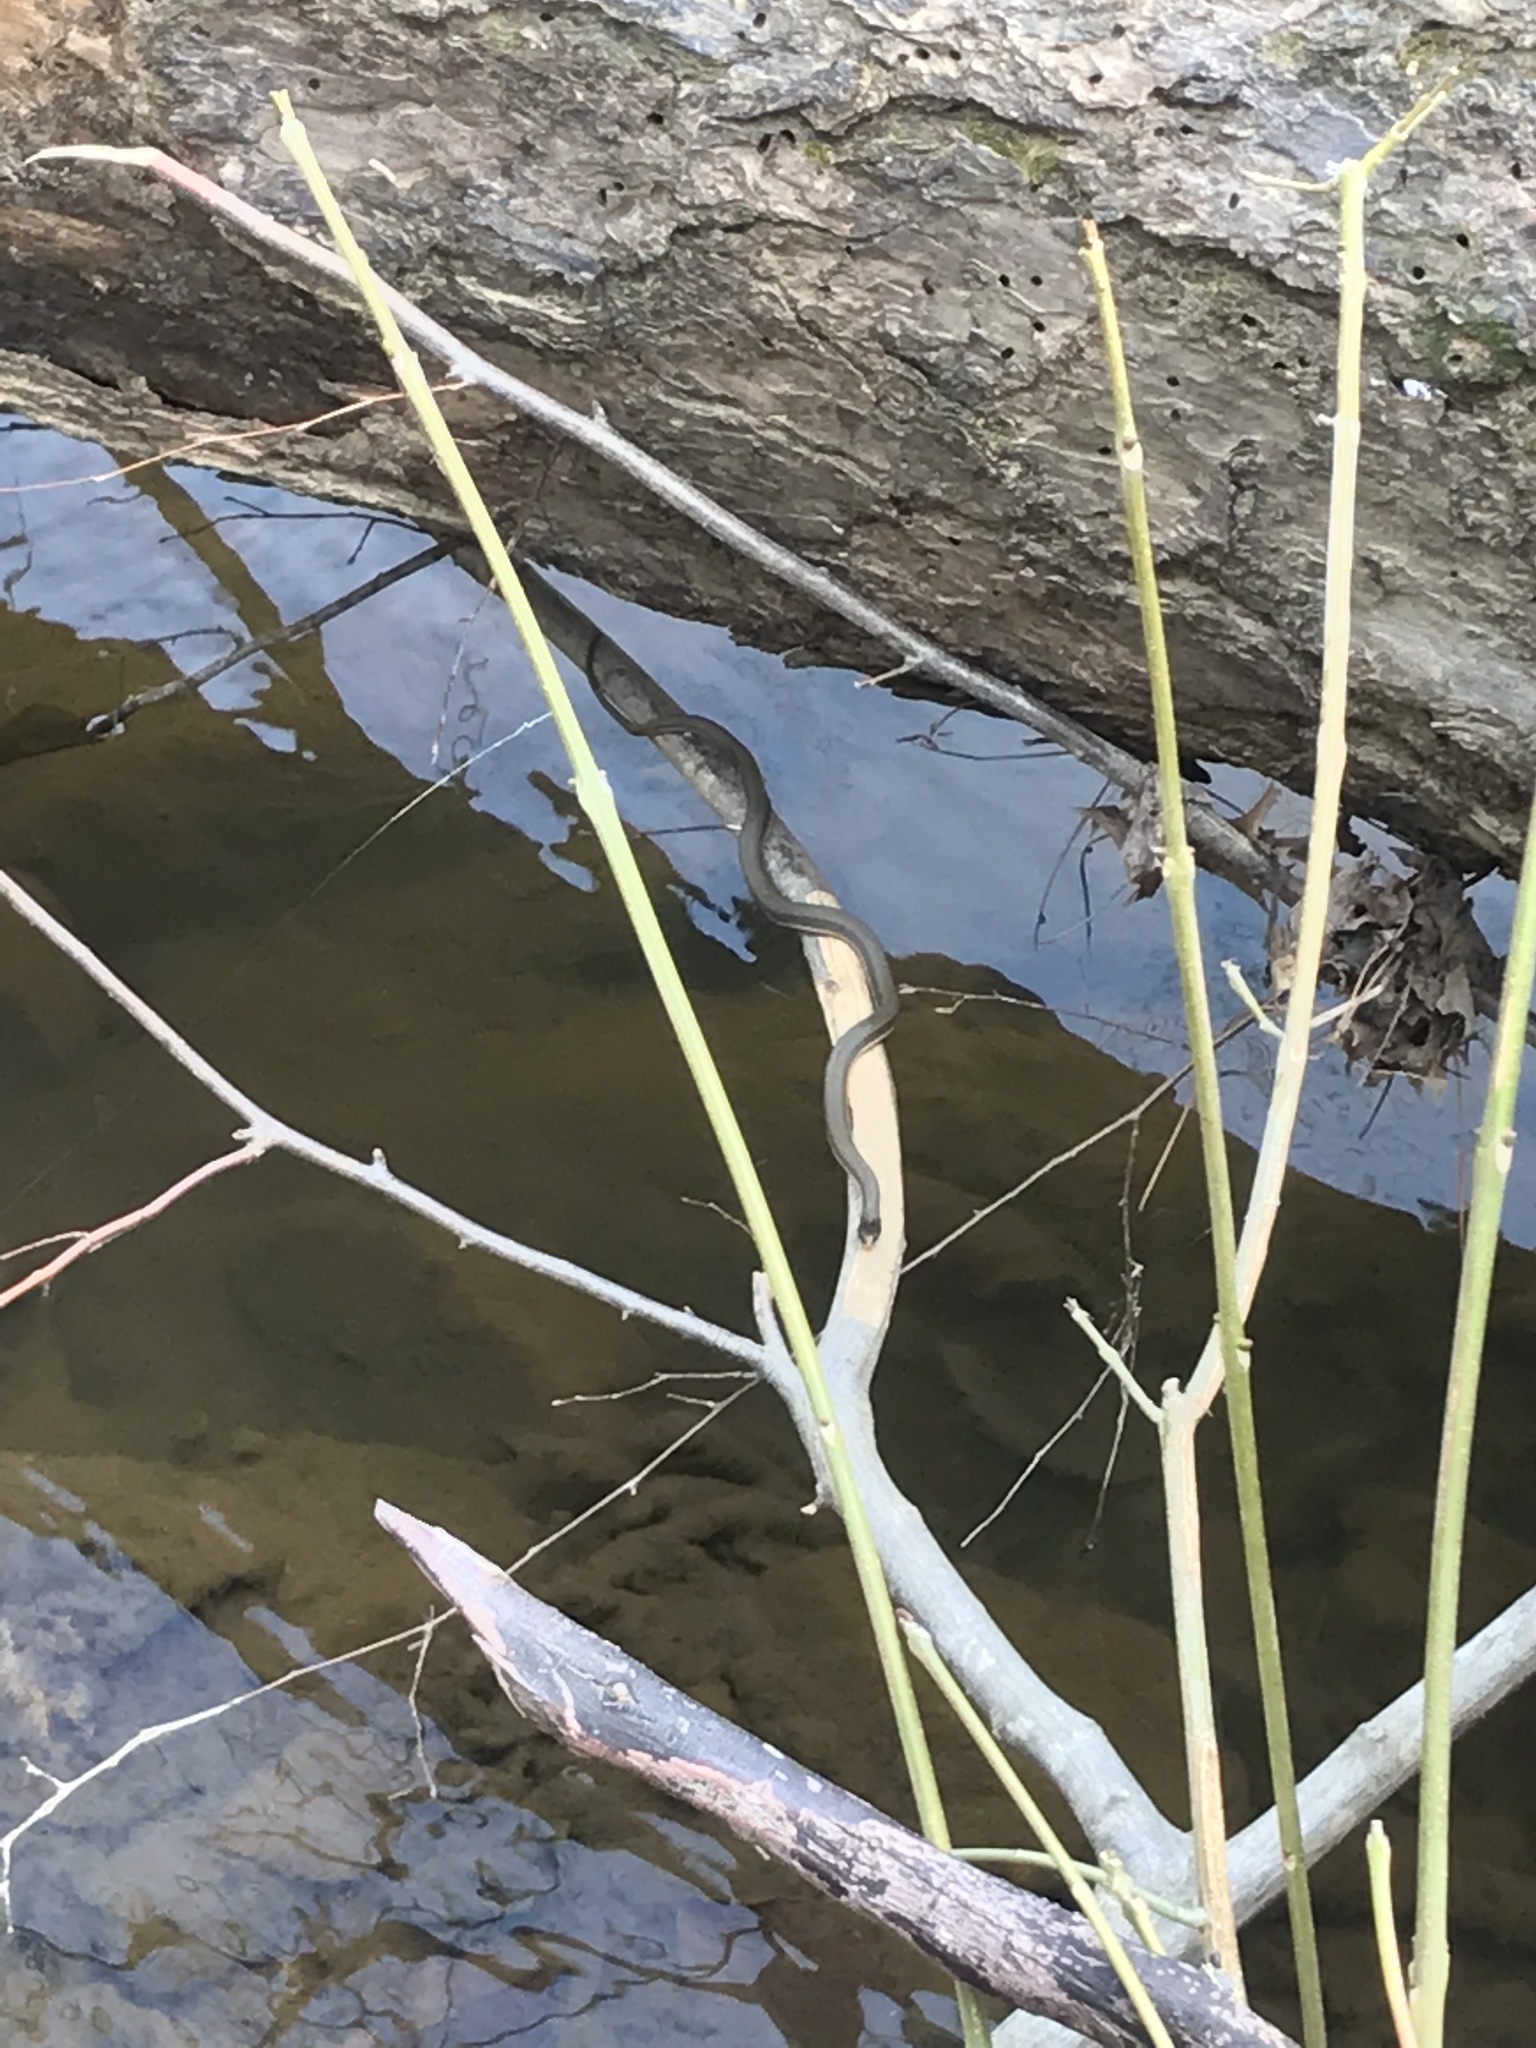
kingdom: Animalia
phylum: Chordata
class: Squamata
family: Colubridae
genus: Regina
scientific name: Regina septemvittata
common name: Queen snake
